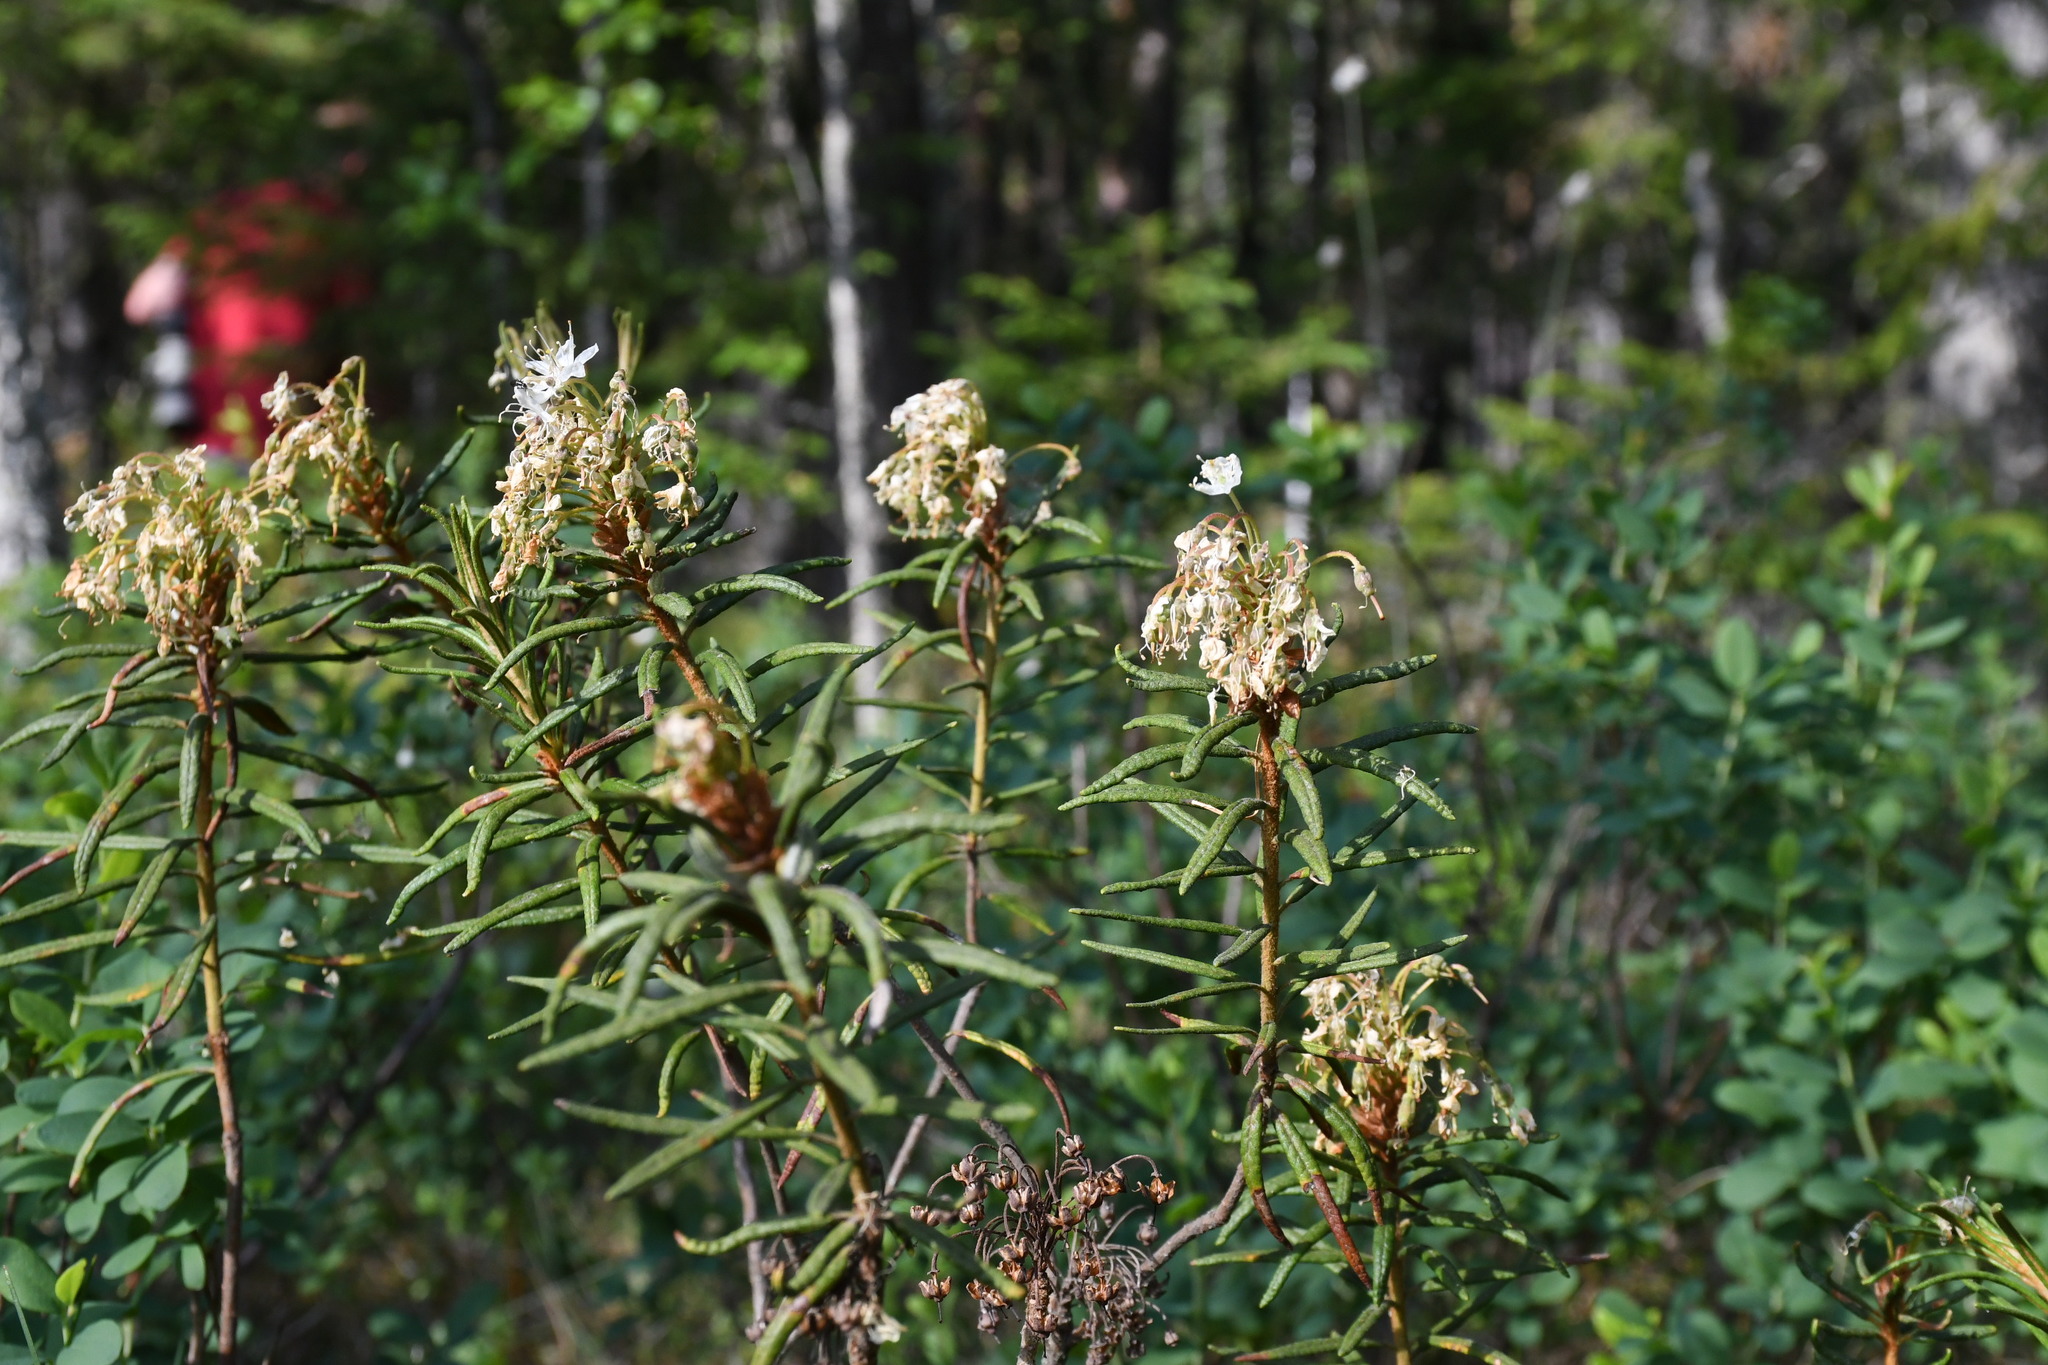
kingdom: Plantae
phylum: Tracheophyta
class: Magnoliopsida
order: Ericales
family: Ericaceae
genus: Rhododendron
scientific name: Rhododendron tomentosum
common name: Marsh labrador tea
